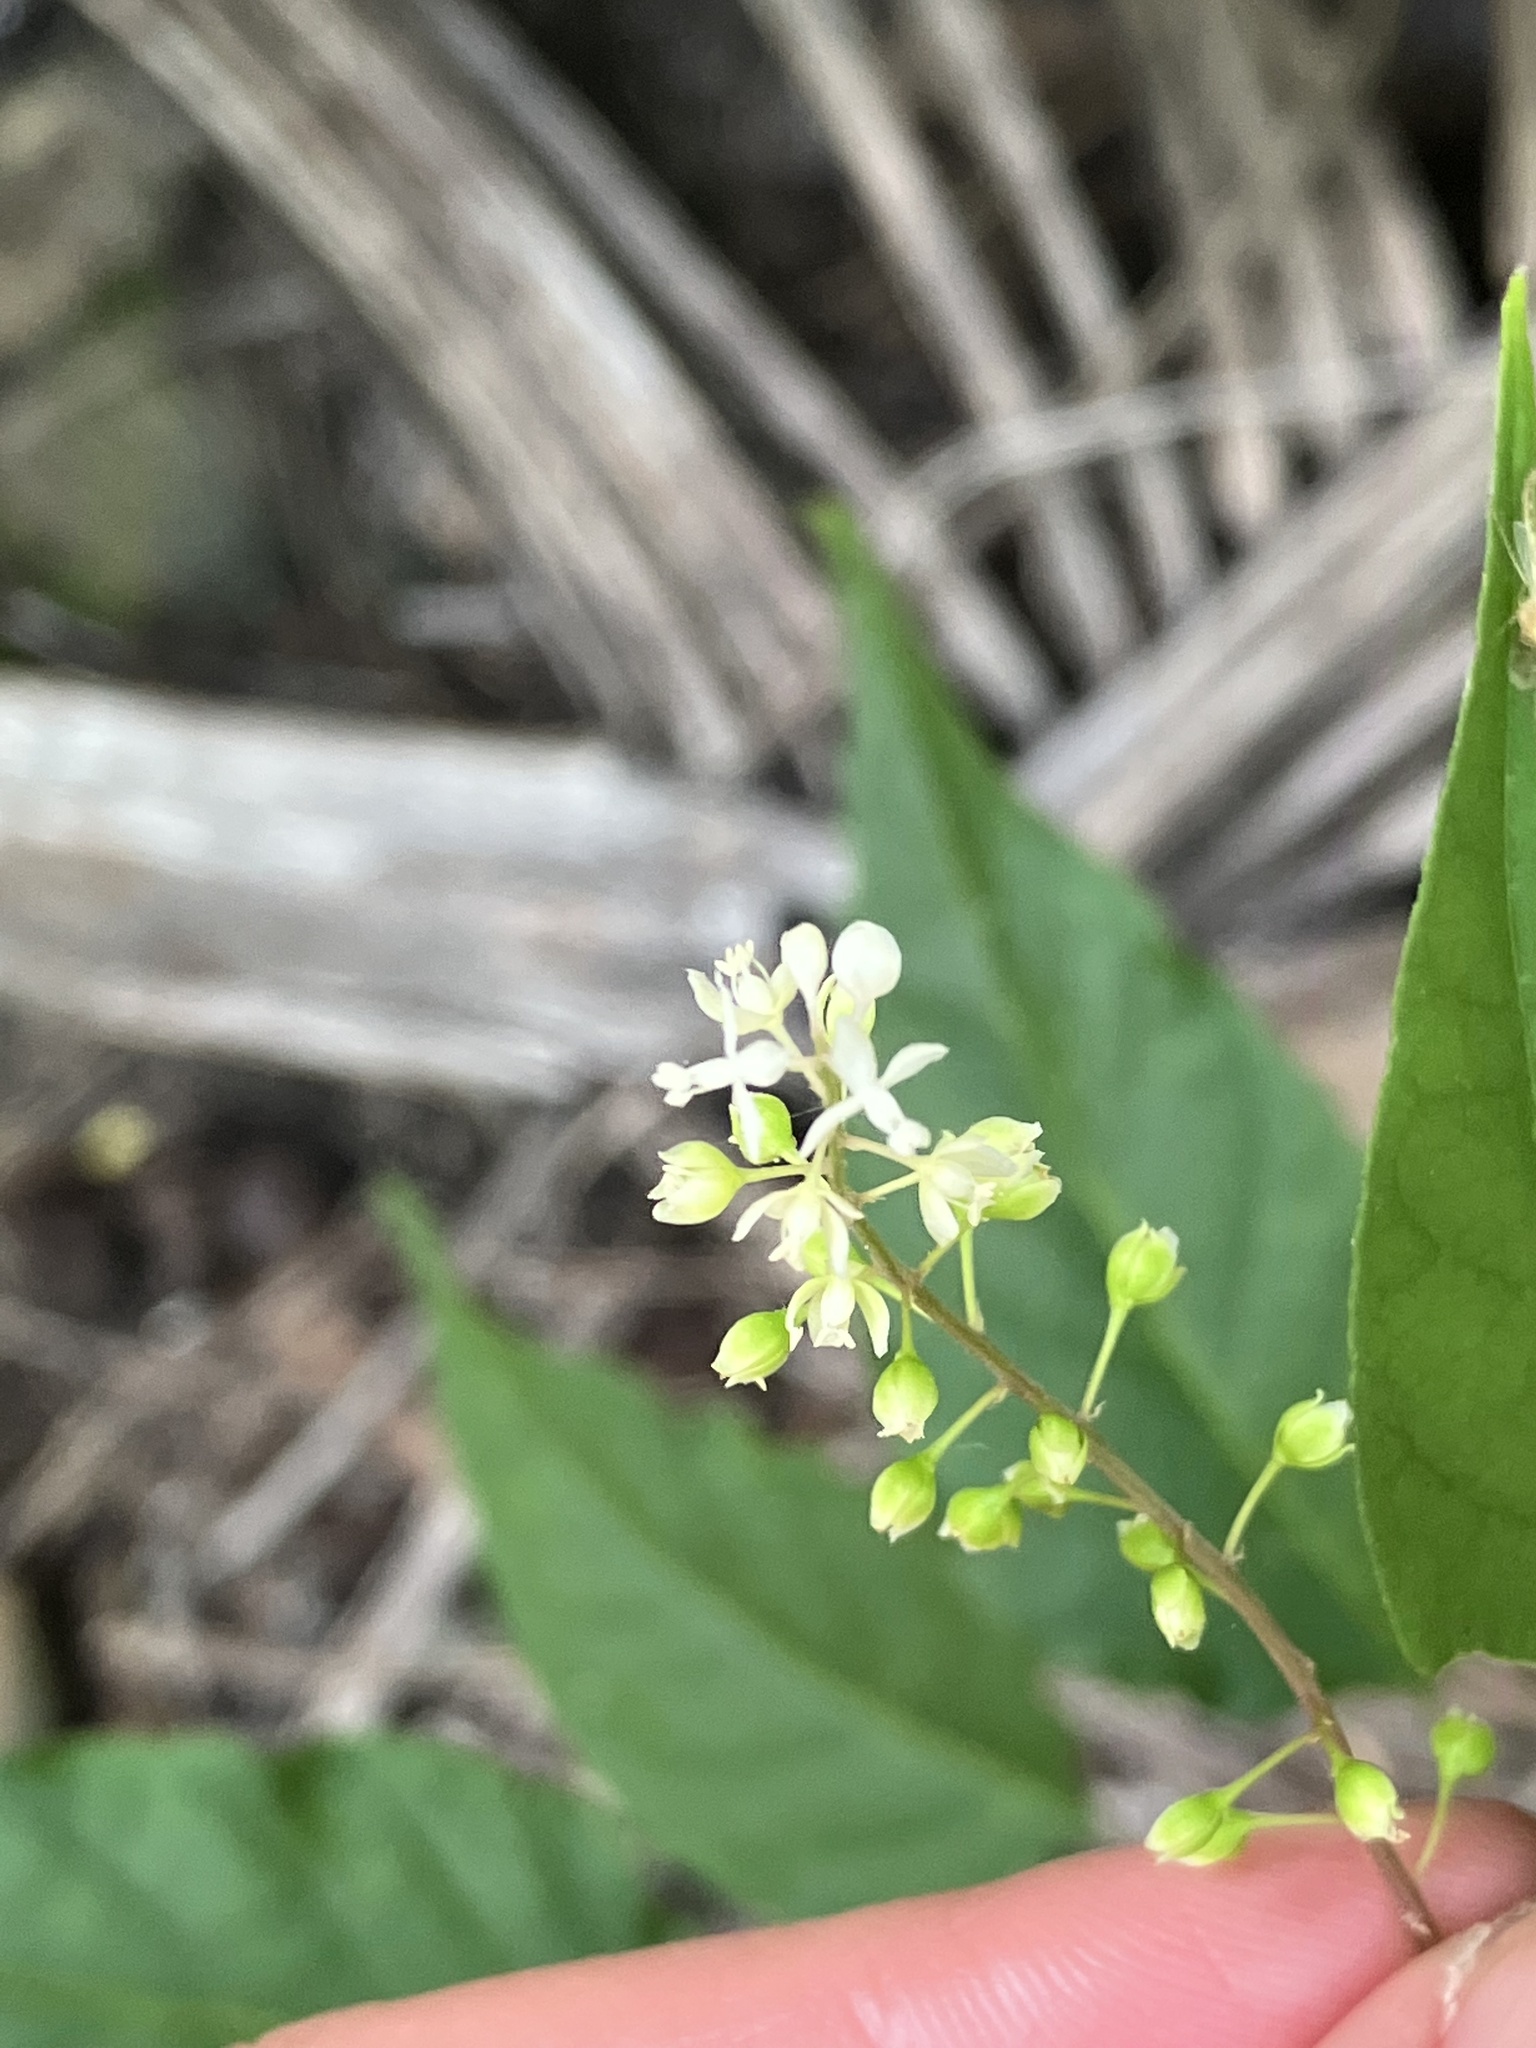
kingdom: Plantae
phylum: Tracheophyta
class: Magnoliopsida
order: Caryophyllales
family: Phytolaccaceae
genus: Rivina
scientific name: Rivina humilis
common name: Rougeplant
